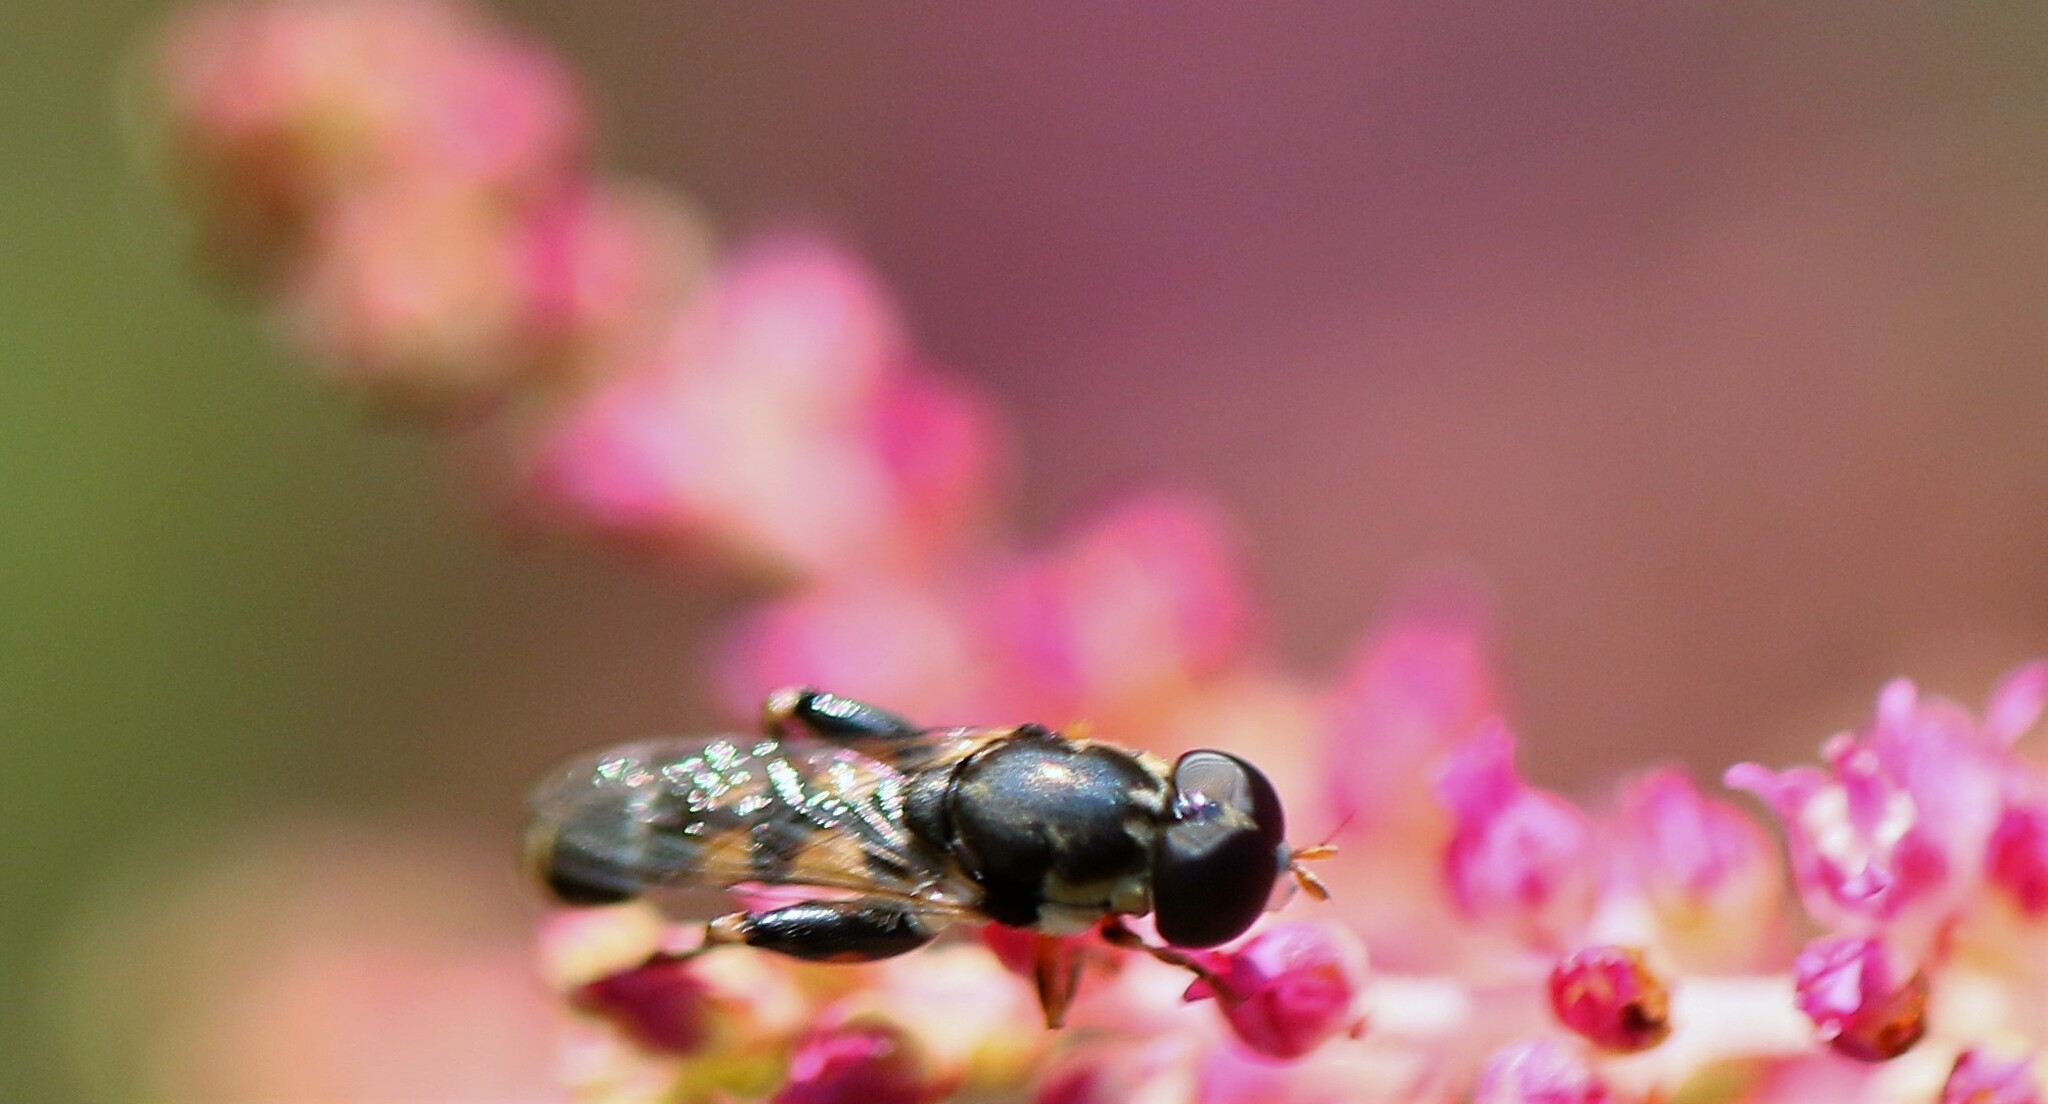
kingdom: Animalia
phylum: Arthropoda
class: Insecta
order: Diptera
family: Syrphidae
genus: Syritta
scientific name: Syritta pipiens
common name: Hover fly
